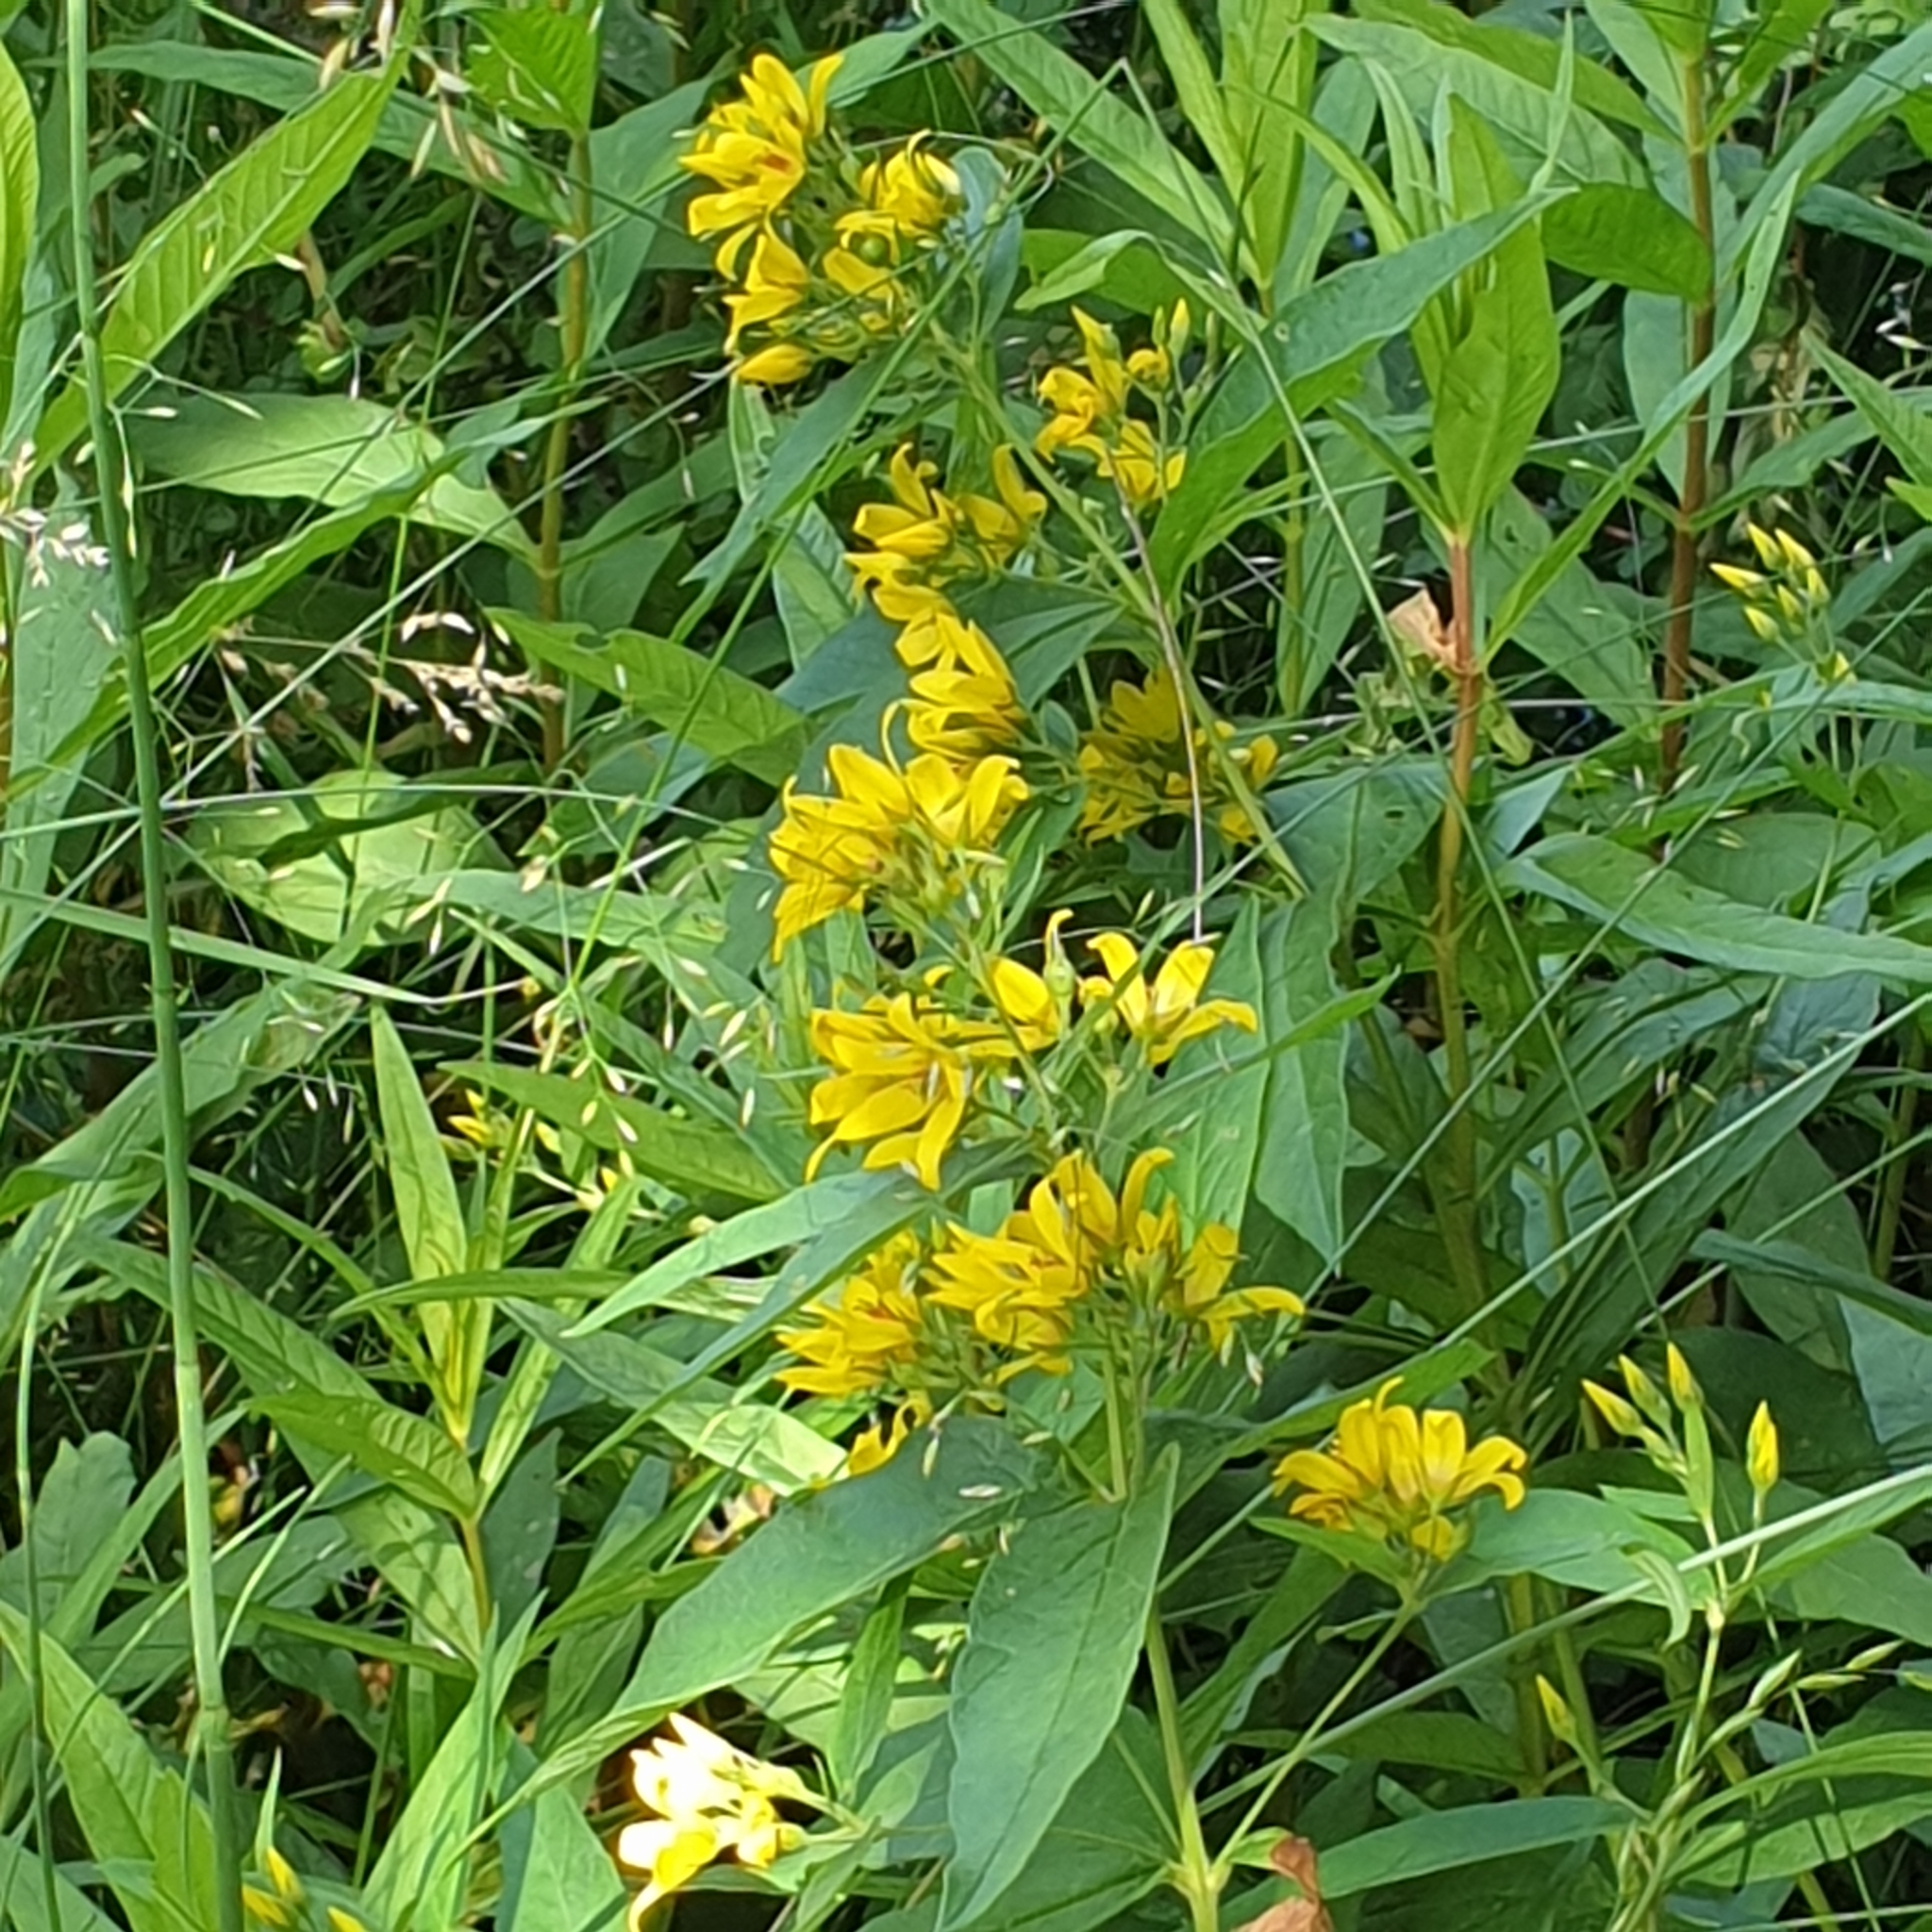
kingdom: Plantae
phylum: Tracheophyta
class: Magnoliopsida
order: Ericales
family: Primulaceae
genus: Lysimachia
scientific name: Lysimachia vulgaris
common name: Yellow loosestrife
